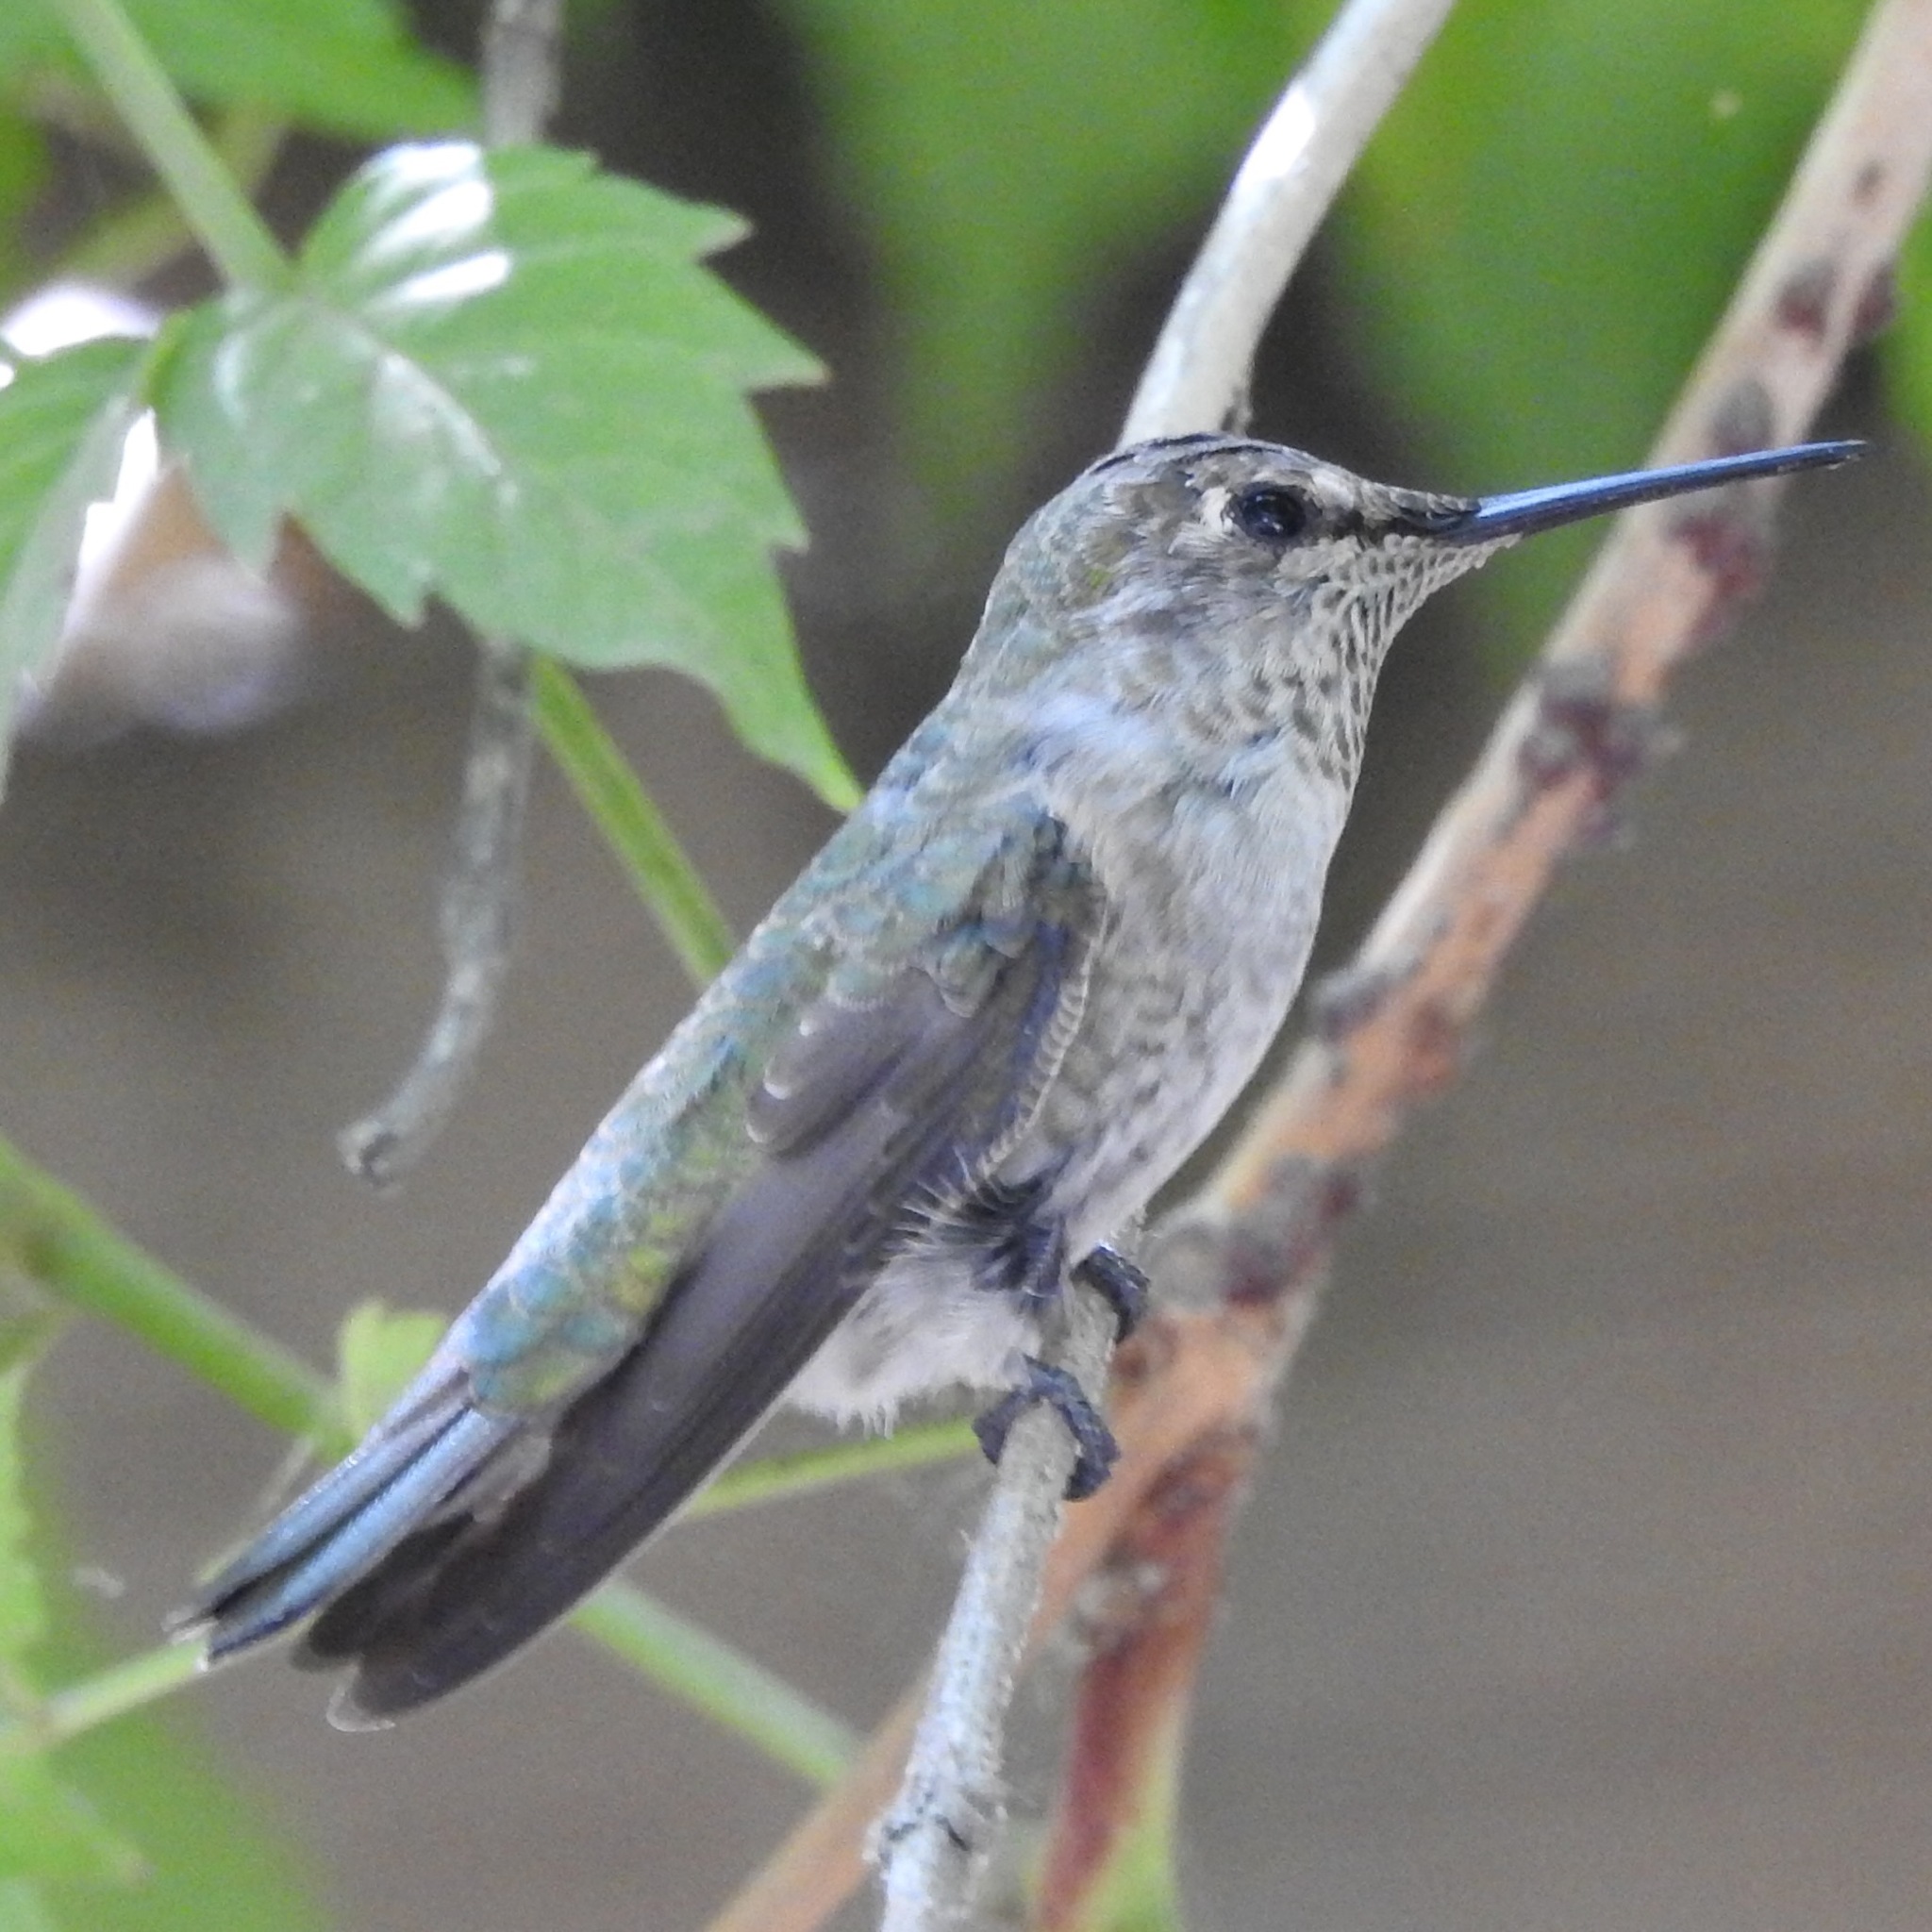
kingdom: Animalia
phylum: Chordata
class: Aves
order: Apodiformes
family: Trochilidae
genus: Calypte
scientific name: Calypte anna
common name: Anna's hummingbird
